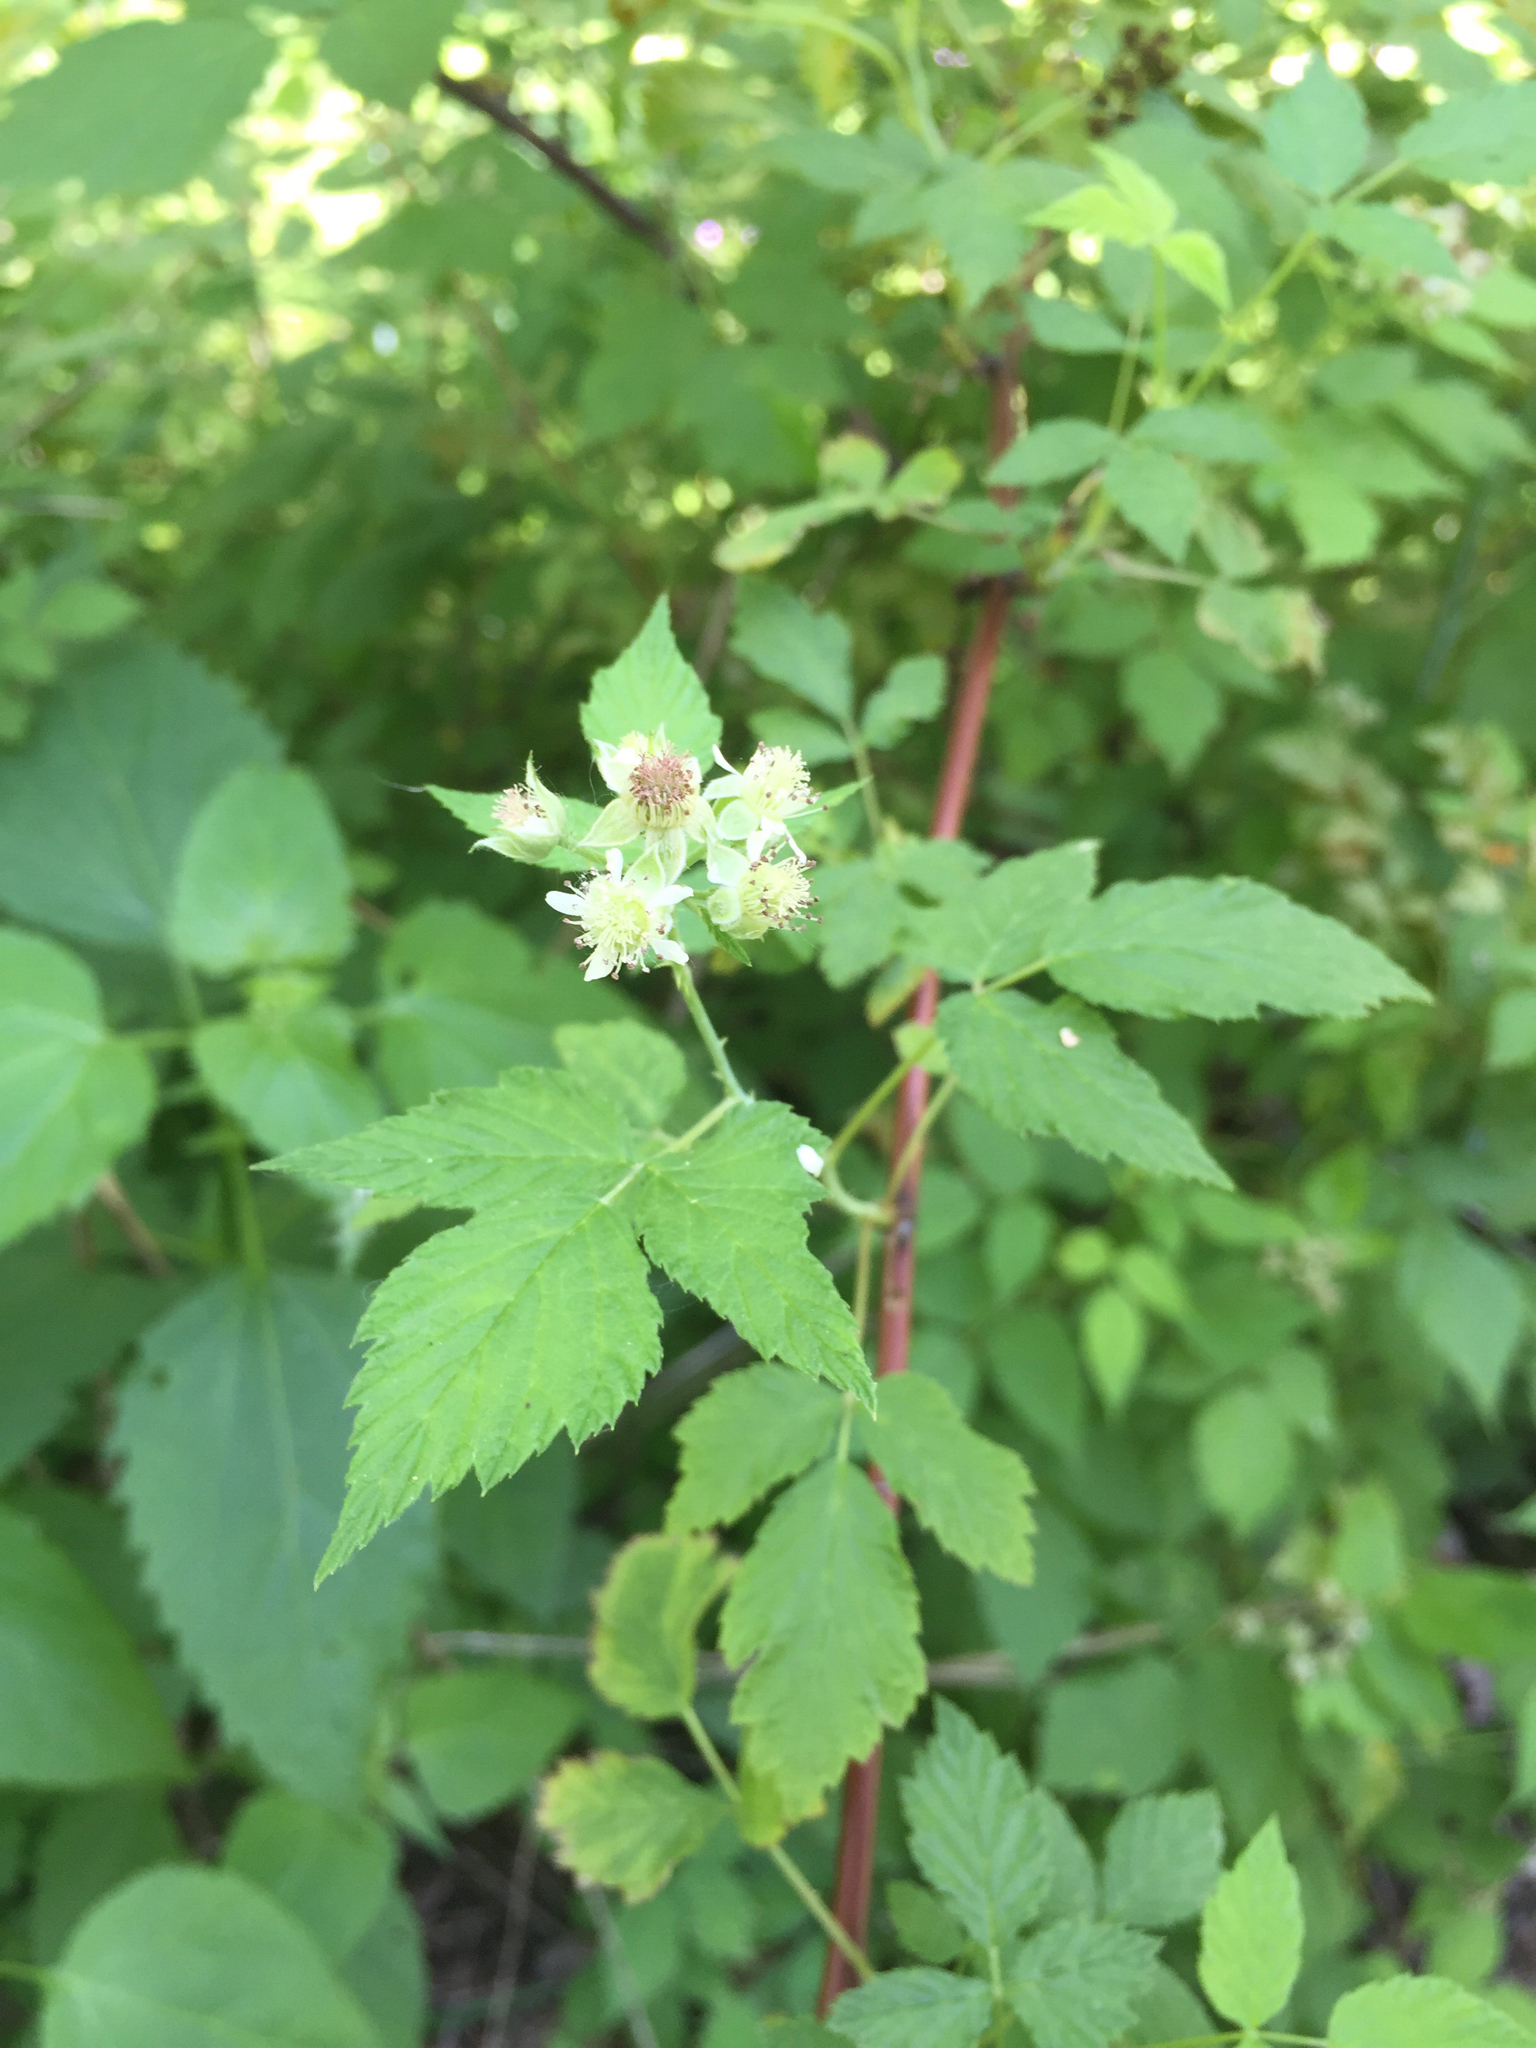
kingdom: Fungi
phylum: Basidiomycota
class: Pucciniomycetes
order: Pucciniales
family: Phragmidiaceae
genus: Arthuriomyces
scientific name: Arthuriomyces peckianus
